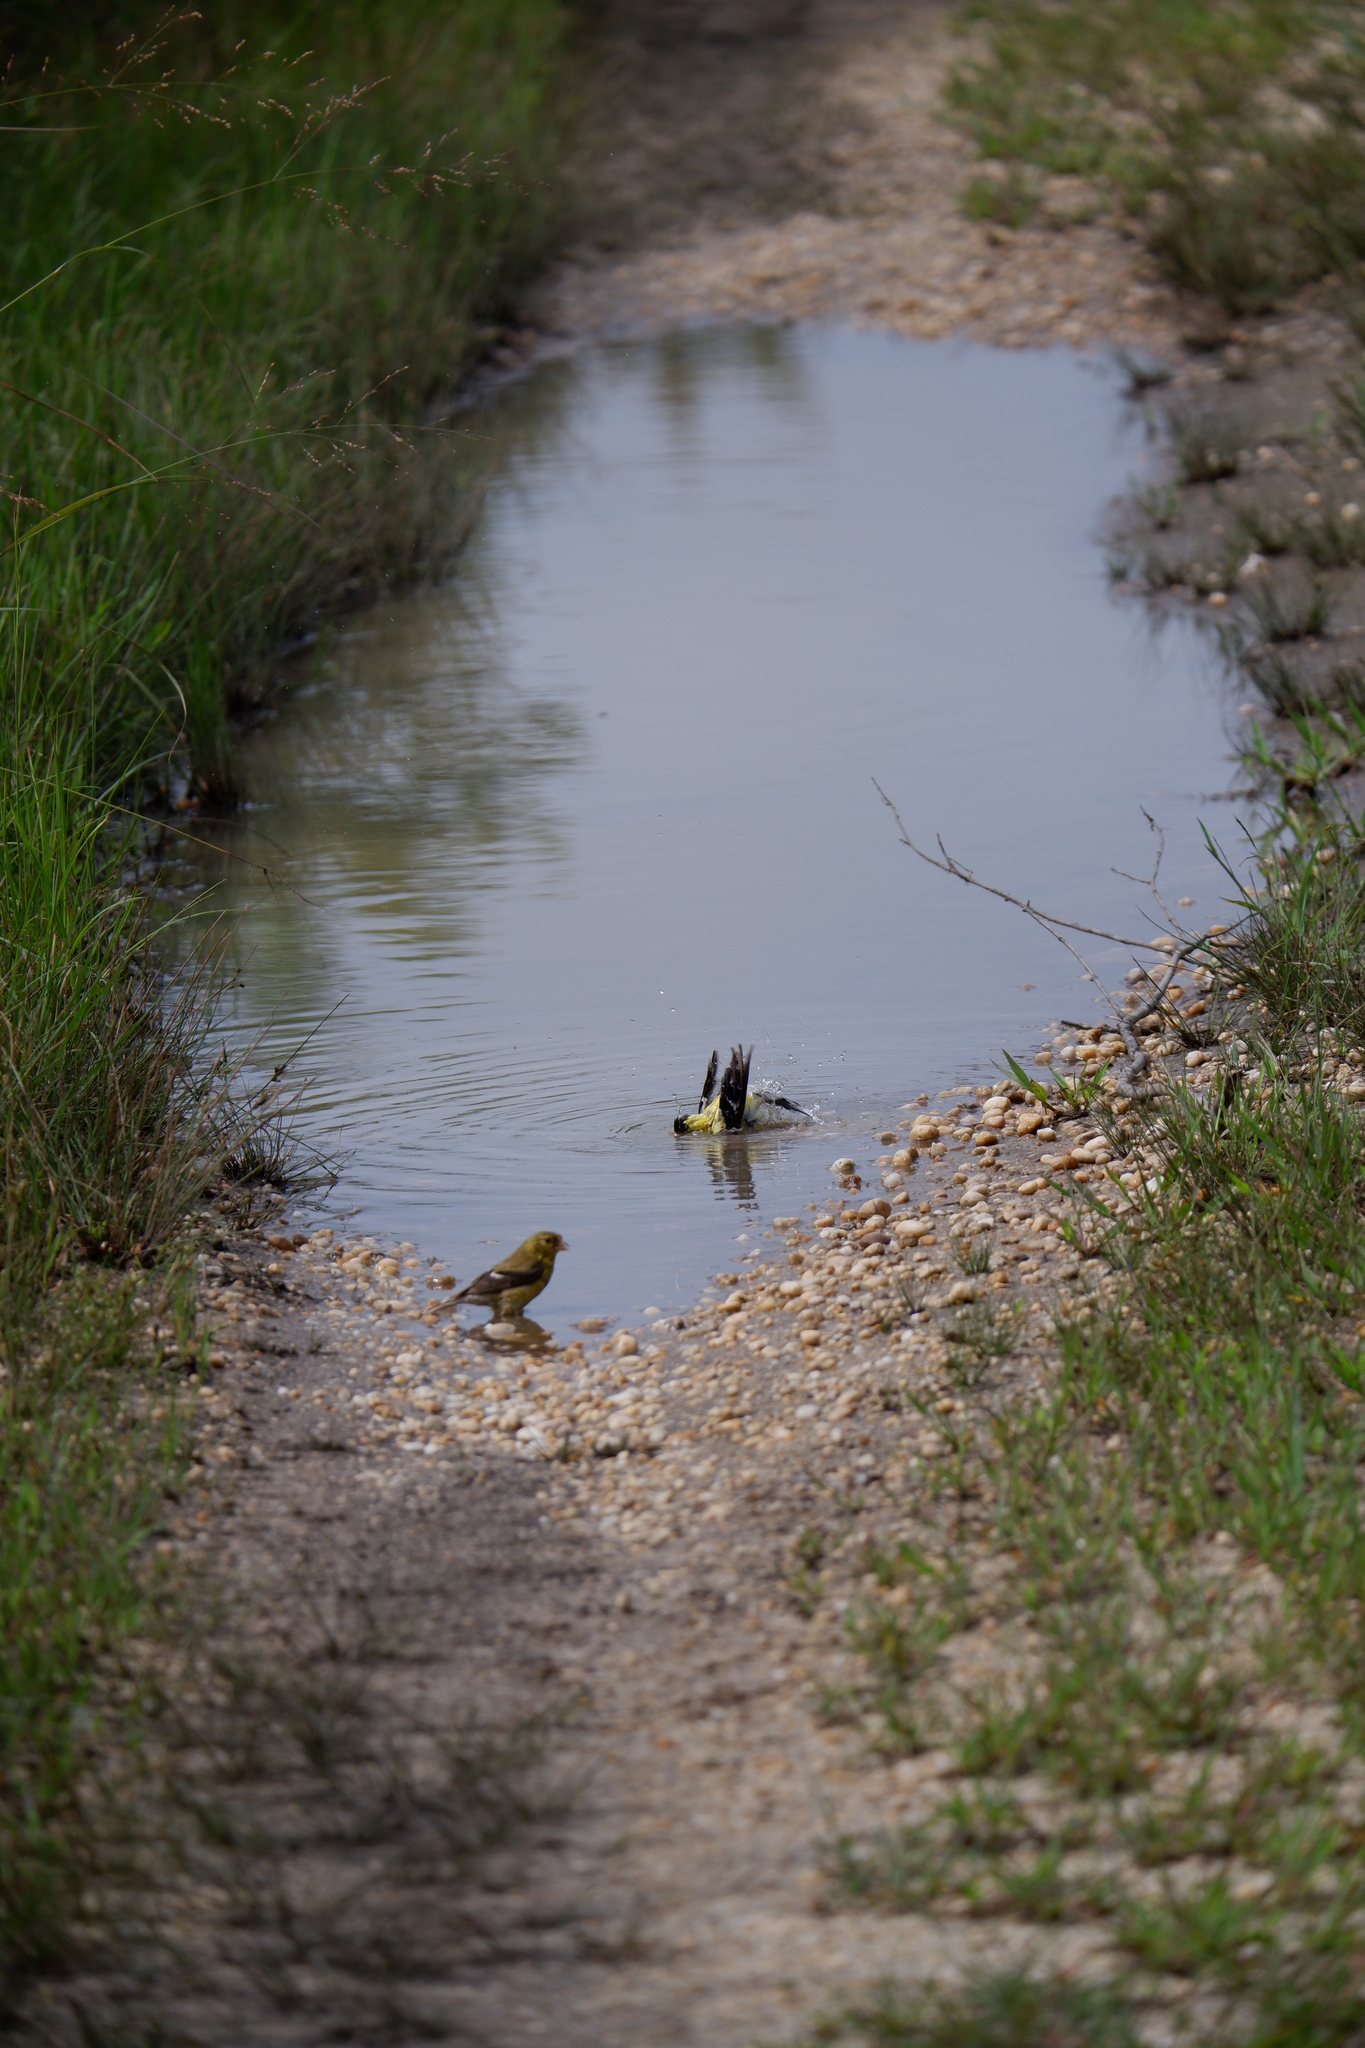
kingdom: Animalia
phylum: Chordata
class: Aves
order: Passeriformes
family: Fringillidae
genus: Spinus
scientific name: Spinus tristis
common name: American goldfinch
